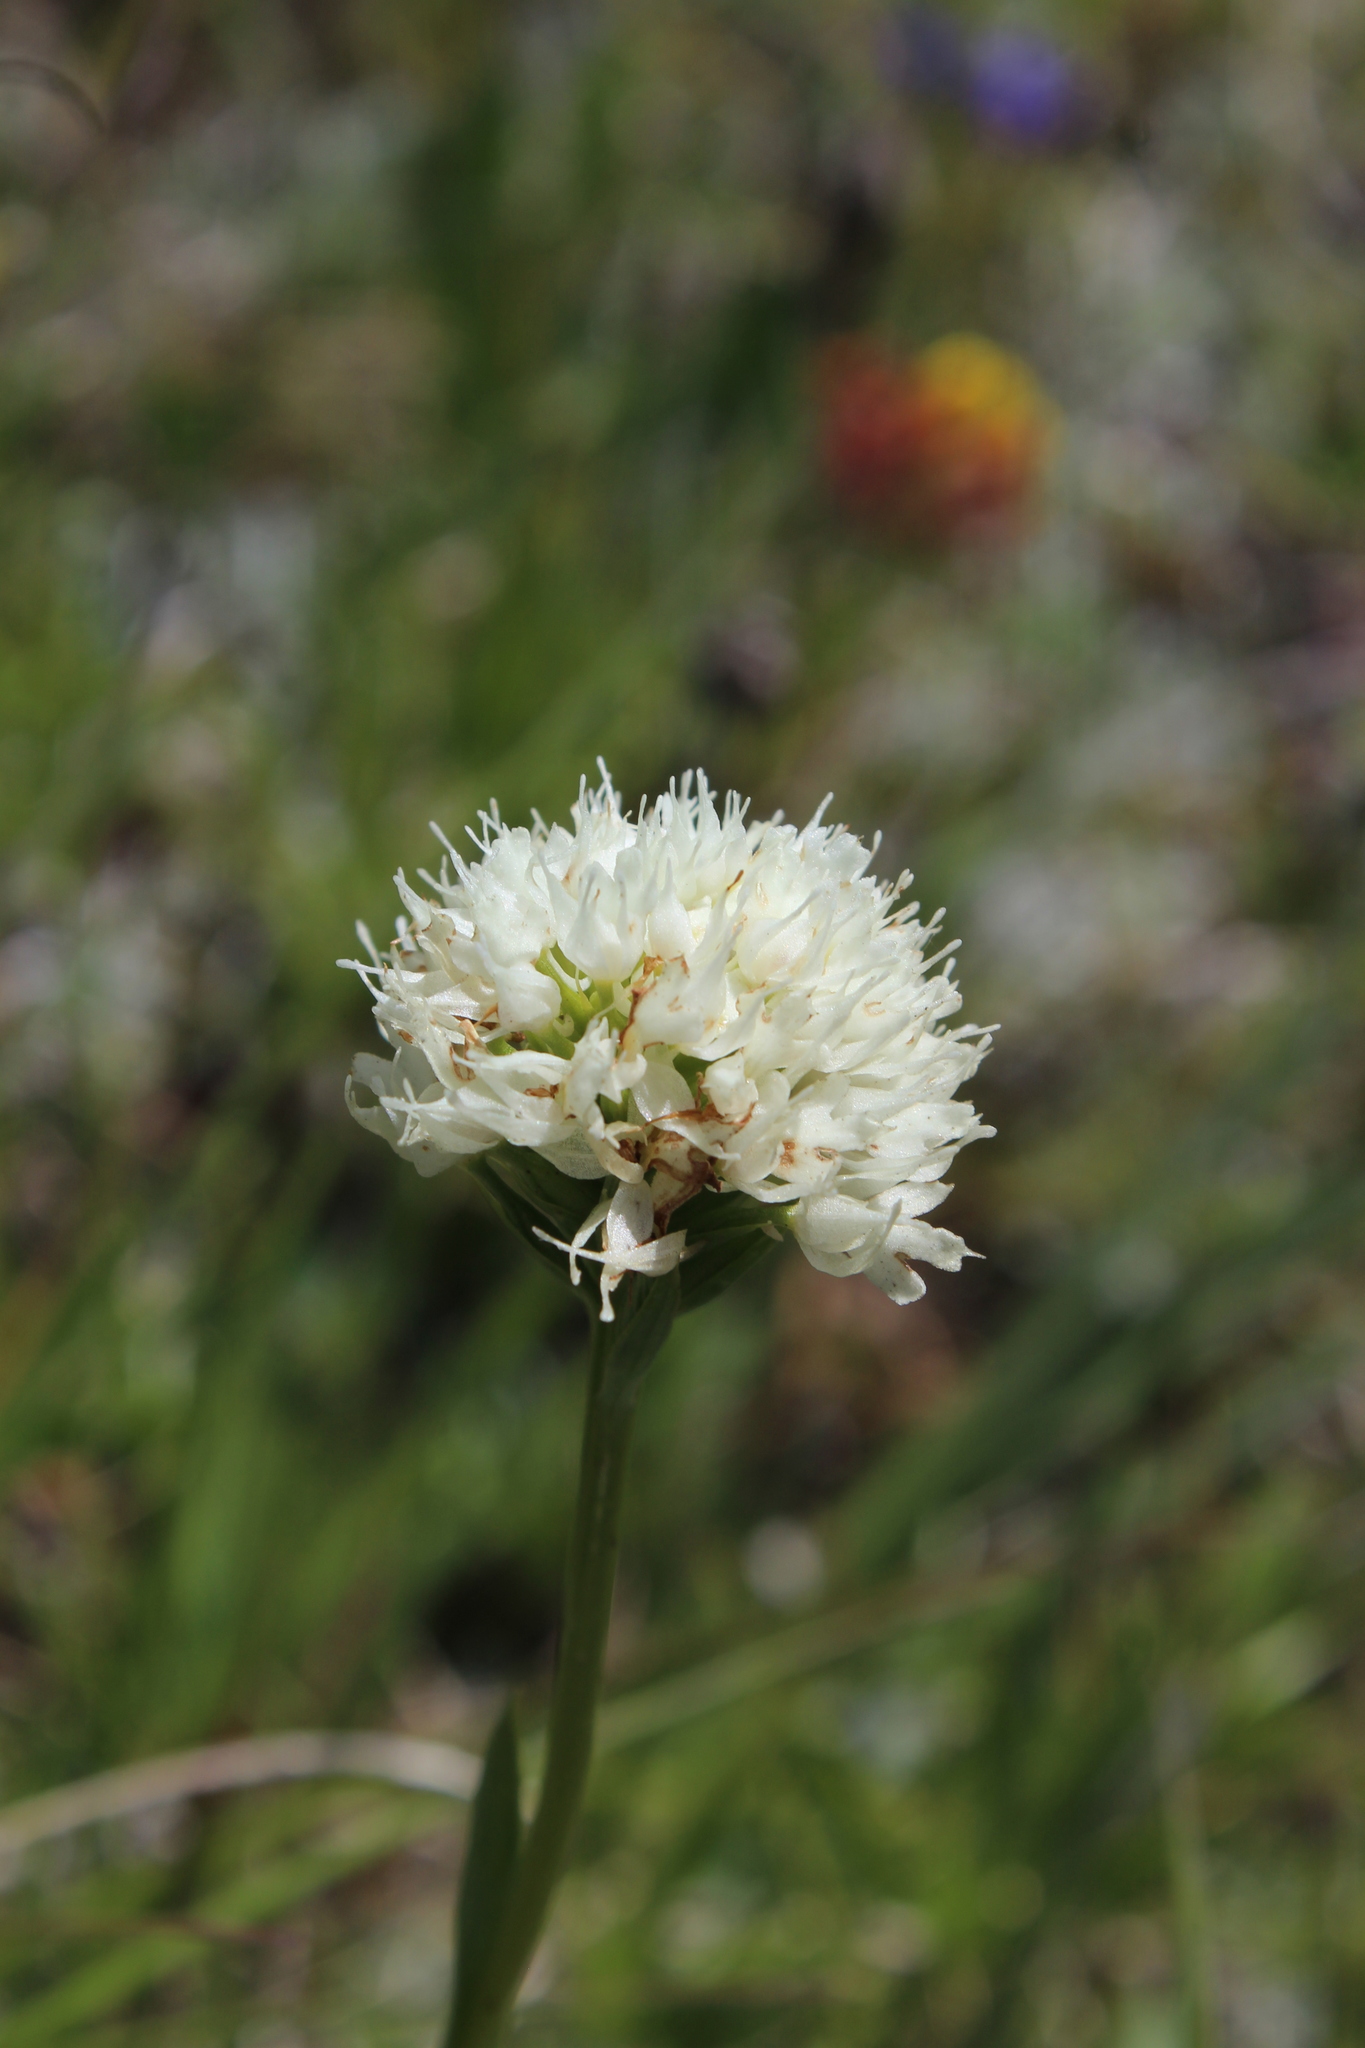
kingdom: Plantae
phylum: Tracheophyta
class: Liliopsida
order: Asparagales
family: Orchidaceae
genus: Traunsteinera
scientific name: Traunsteinera sphaerica
